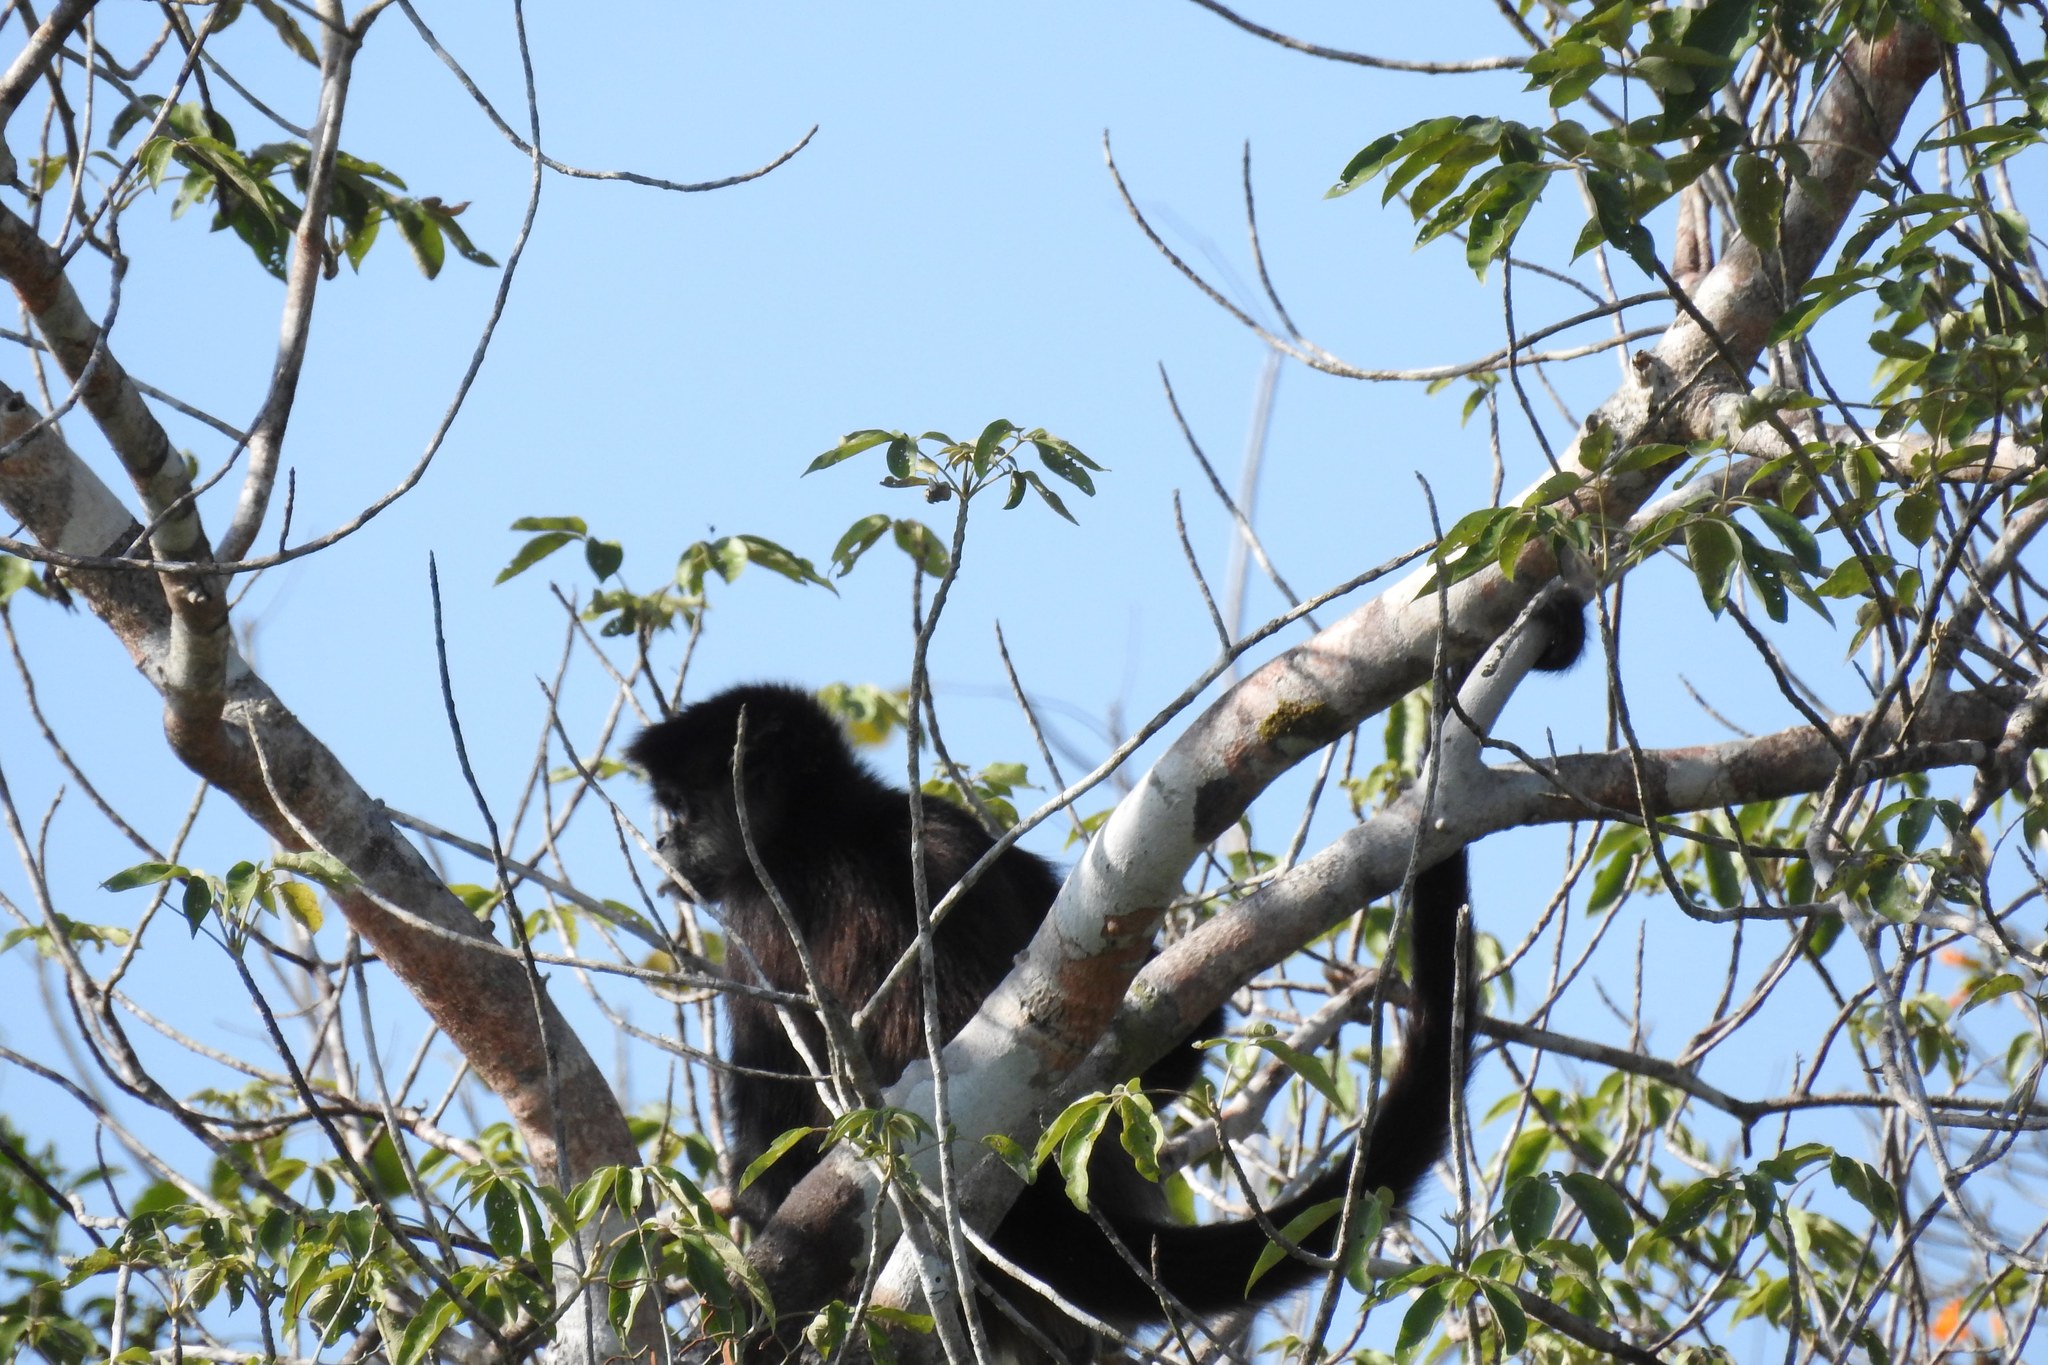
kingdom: Animalia
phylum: Chordata
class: Mammalia
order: Primates
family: Atelidae
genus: Ateles
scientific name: Ateles geoffroyi
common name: Black-handed spider monkey
